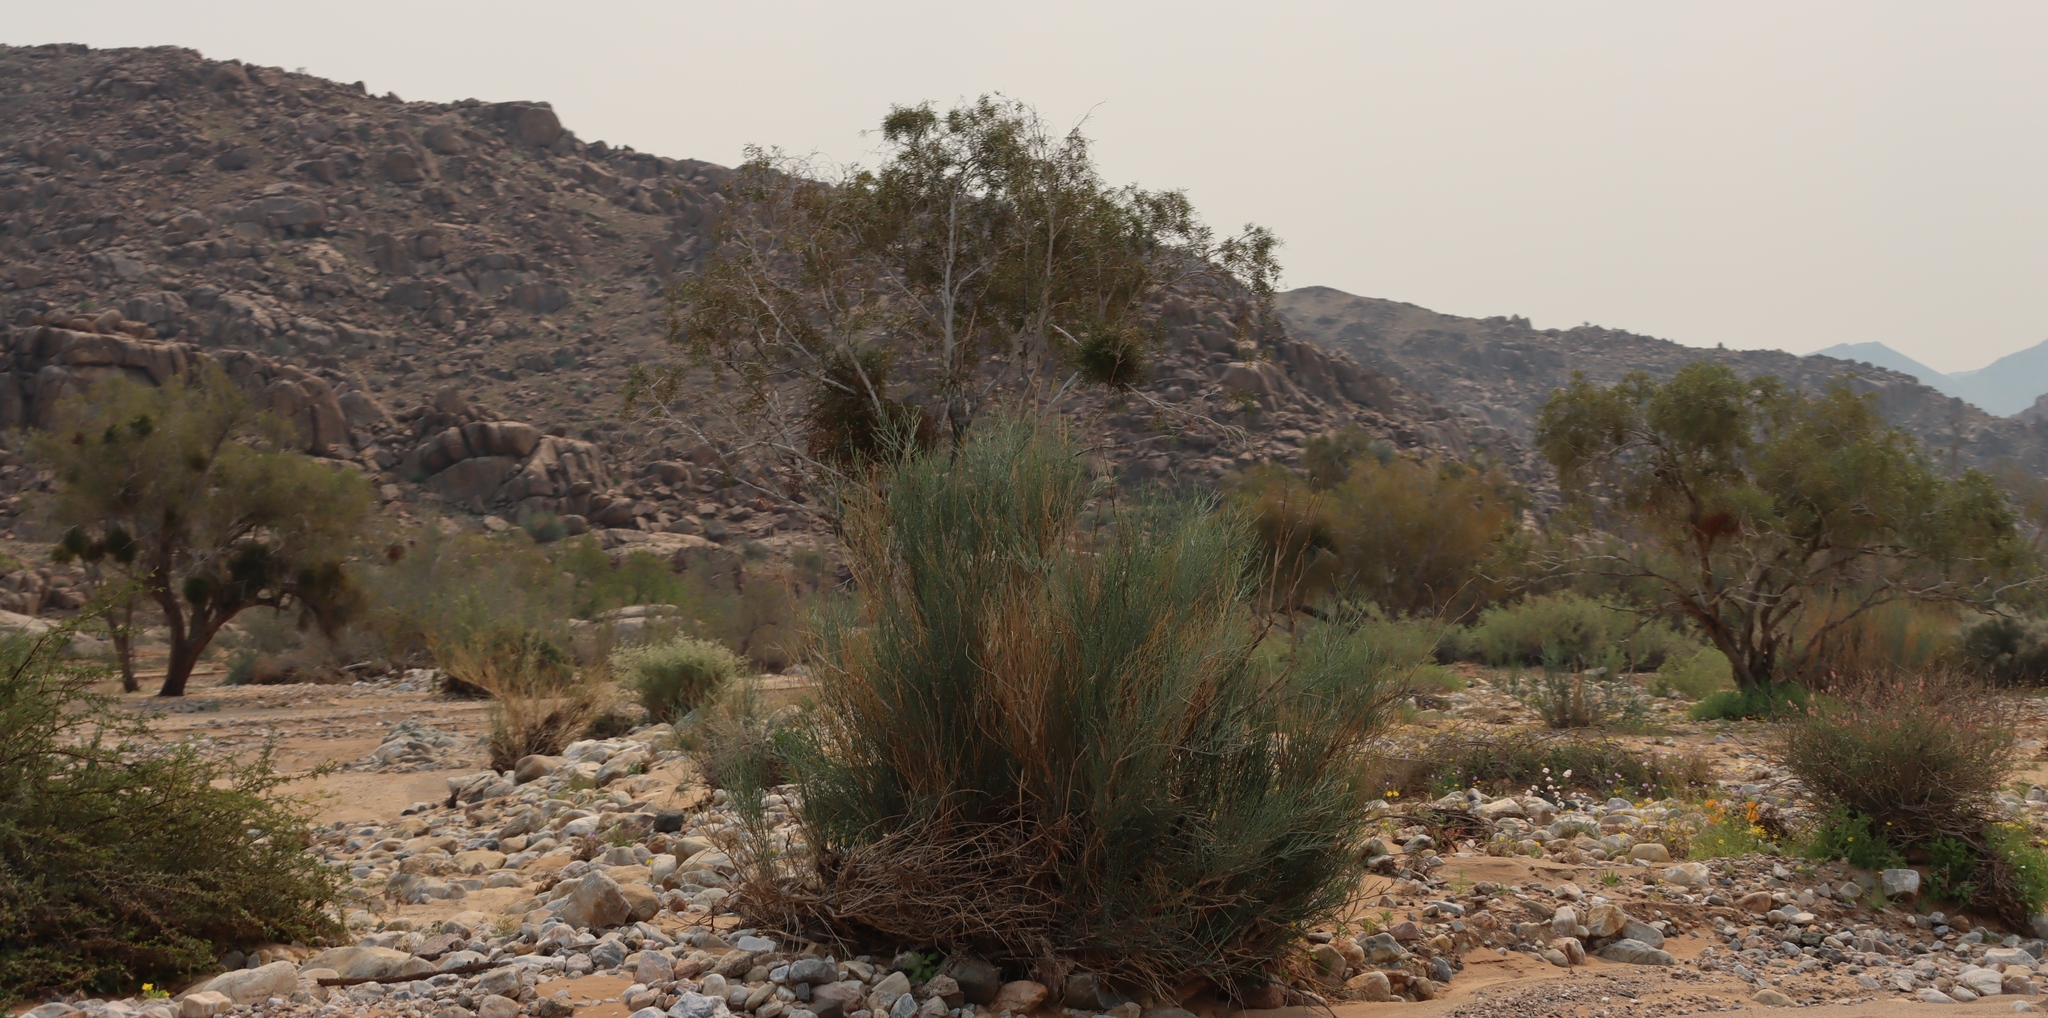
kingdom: Plantae
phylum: Tracheophyta
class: Magnoliopsida
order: Zygophyllales
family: Zygophyllaceae
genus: Sisyndite
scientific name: Sisyndite spartea
